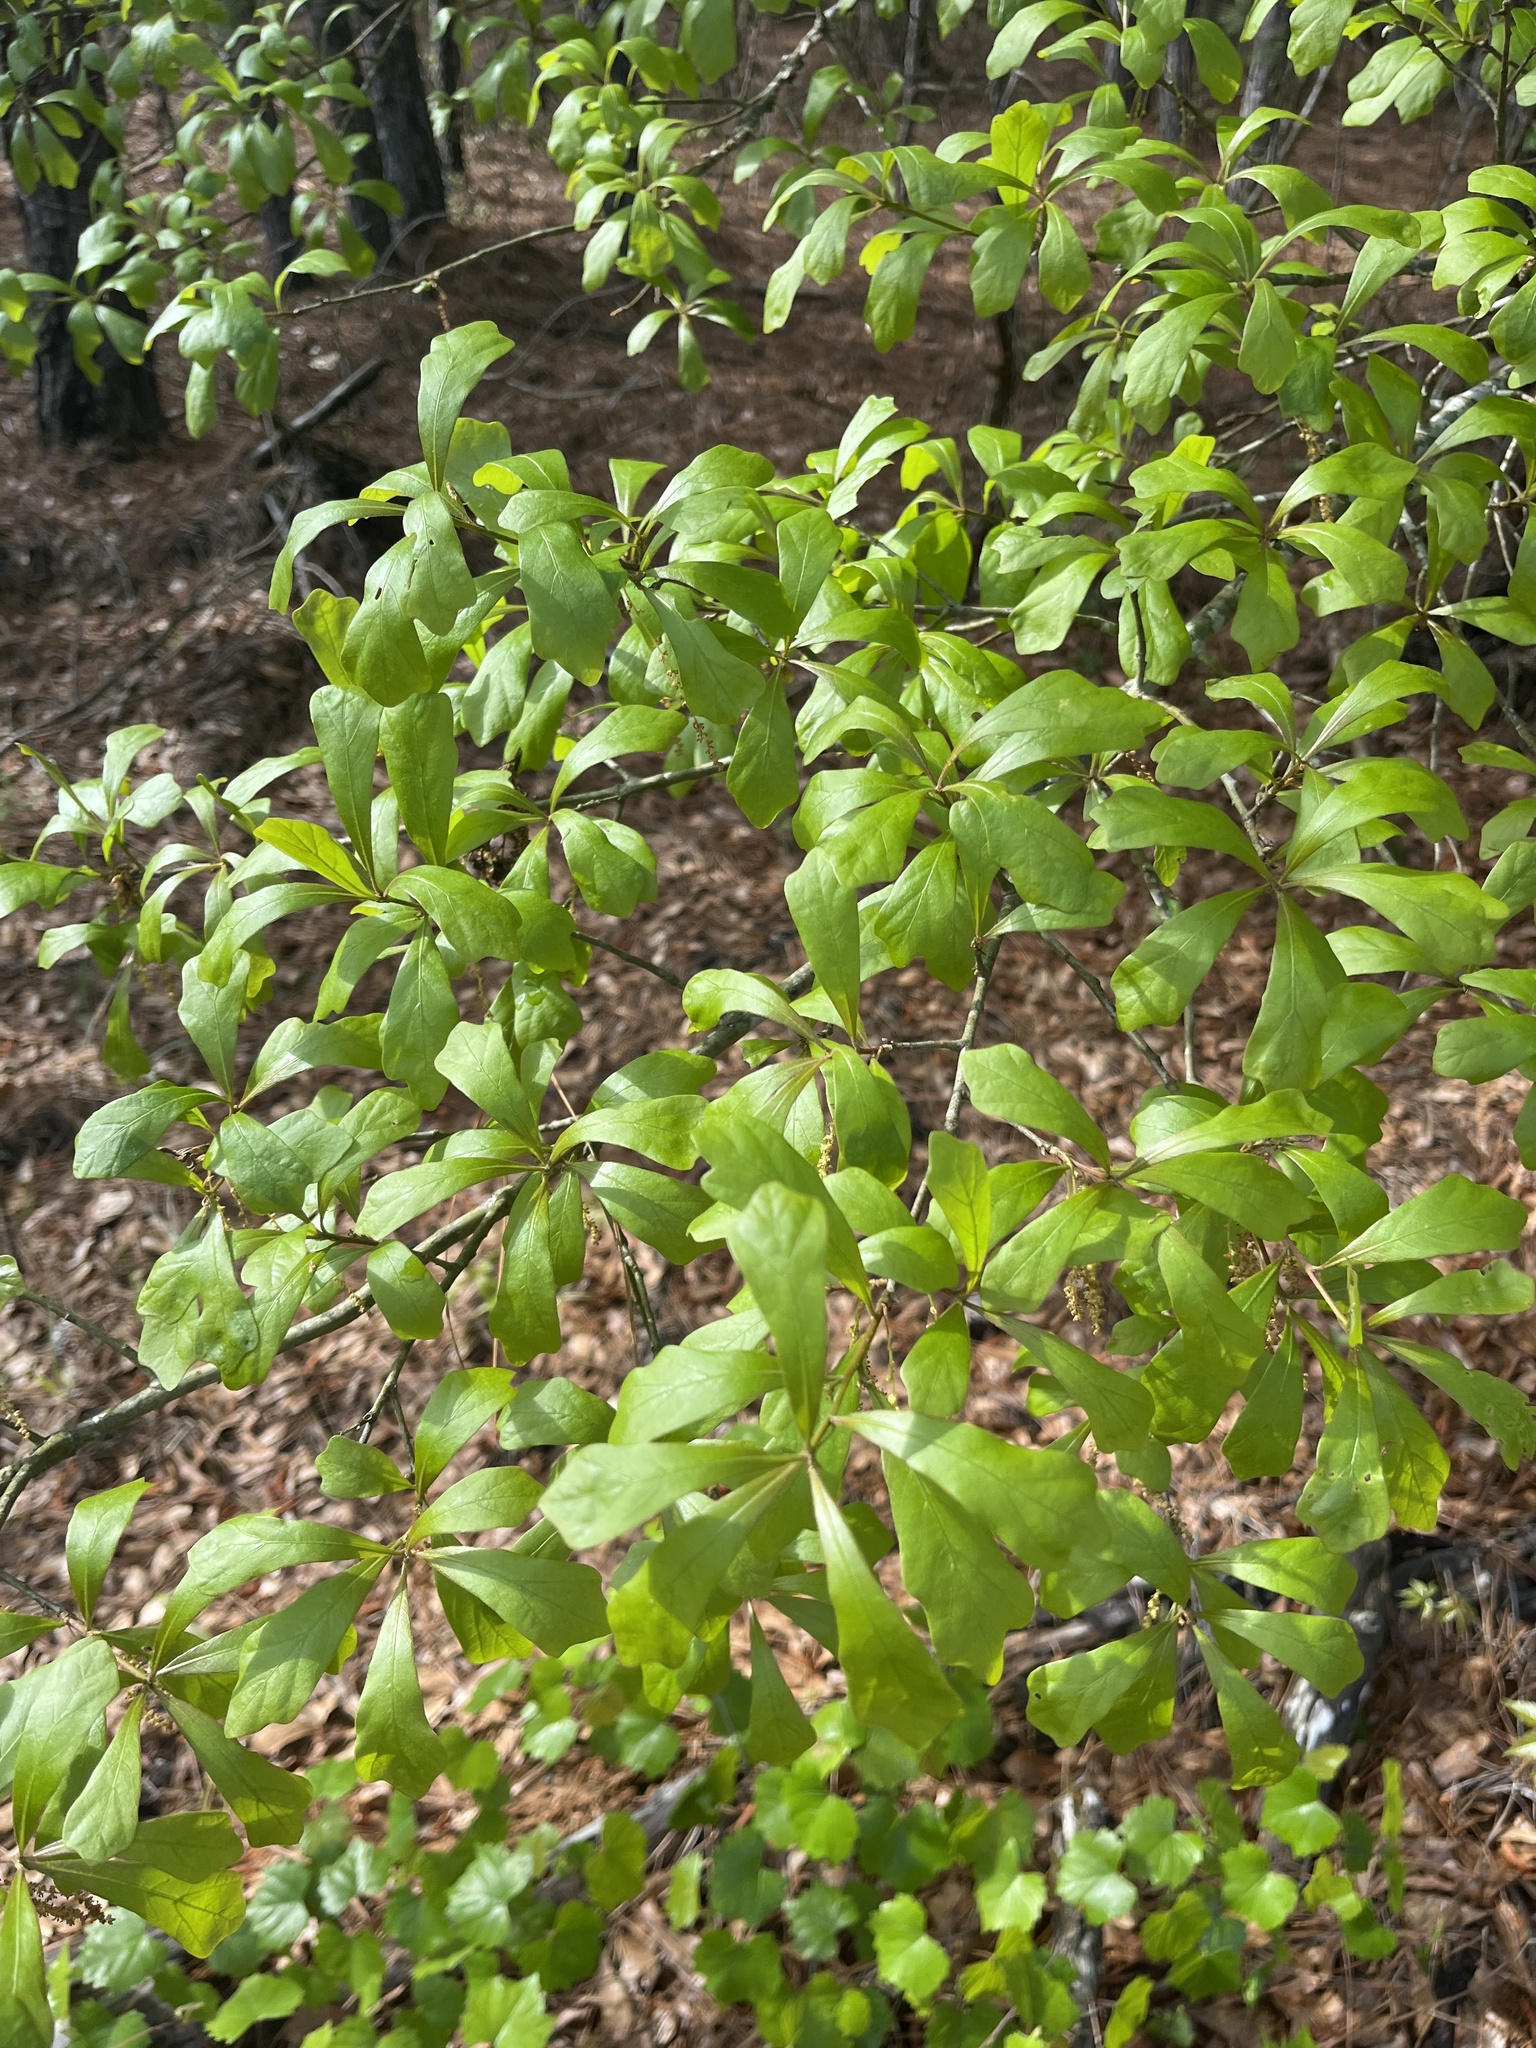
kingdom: Plantae
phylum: Tracheophyta
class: Magnoliopsida
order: Fagales
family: Fagaceae
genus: Quercus
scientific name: Quercus nigra
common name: Water oak
